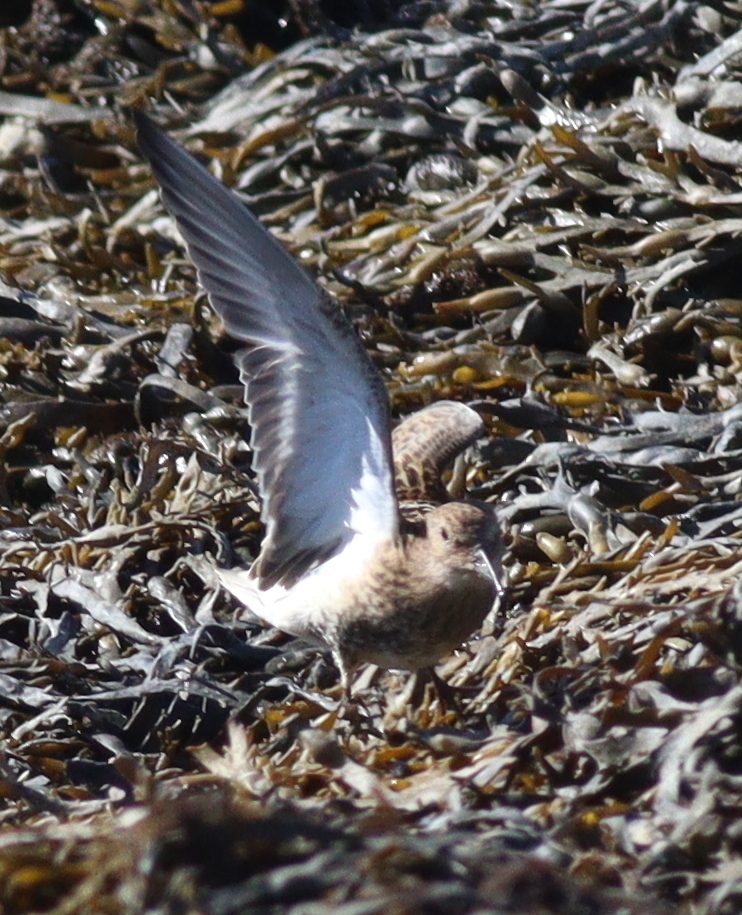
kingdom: Animalia
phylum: Chordata
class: Aves
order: Charadriiformes
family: Scolopacidae
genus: Calidris
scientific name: Calidris alpina
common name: Dunlin
